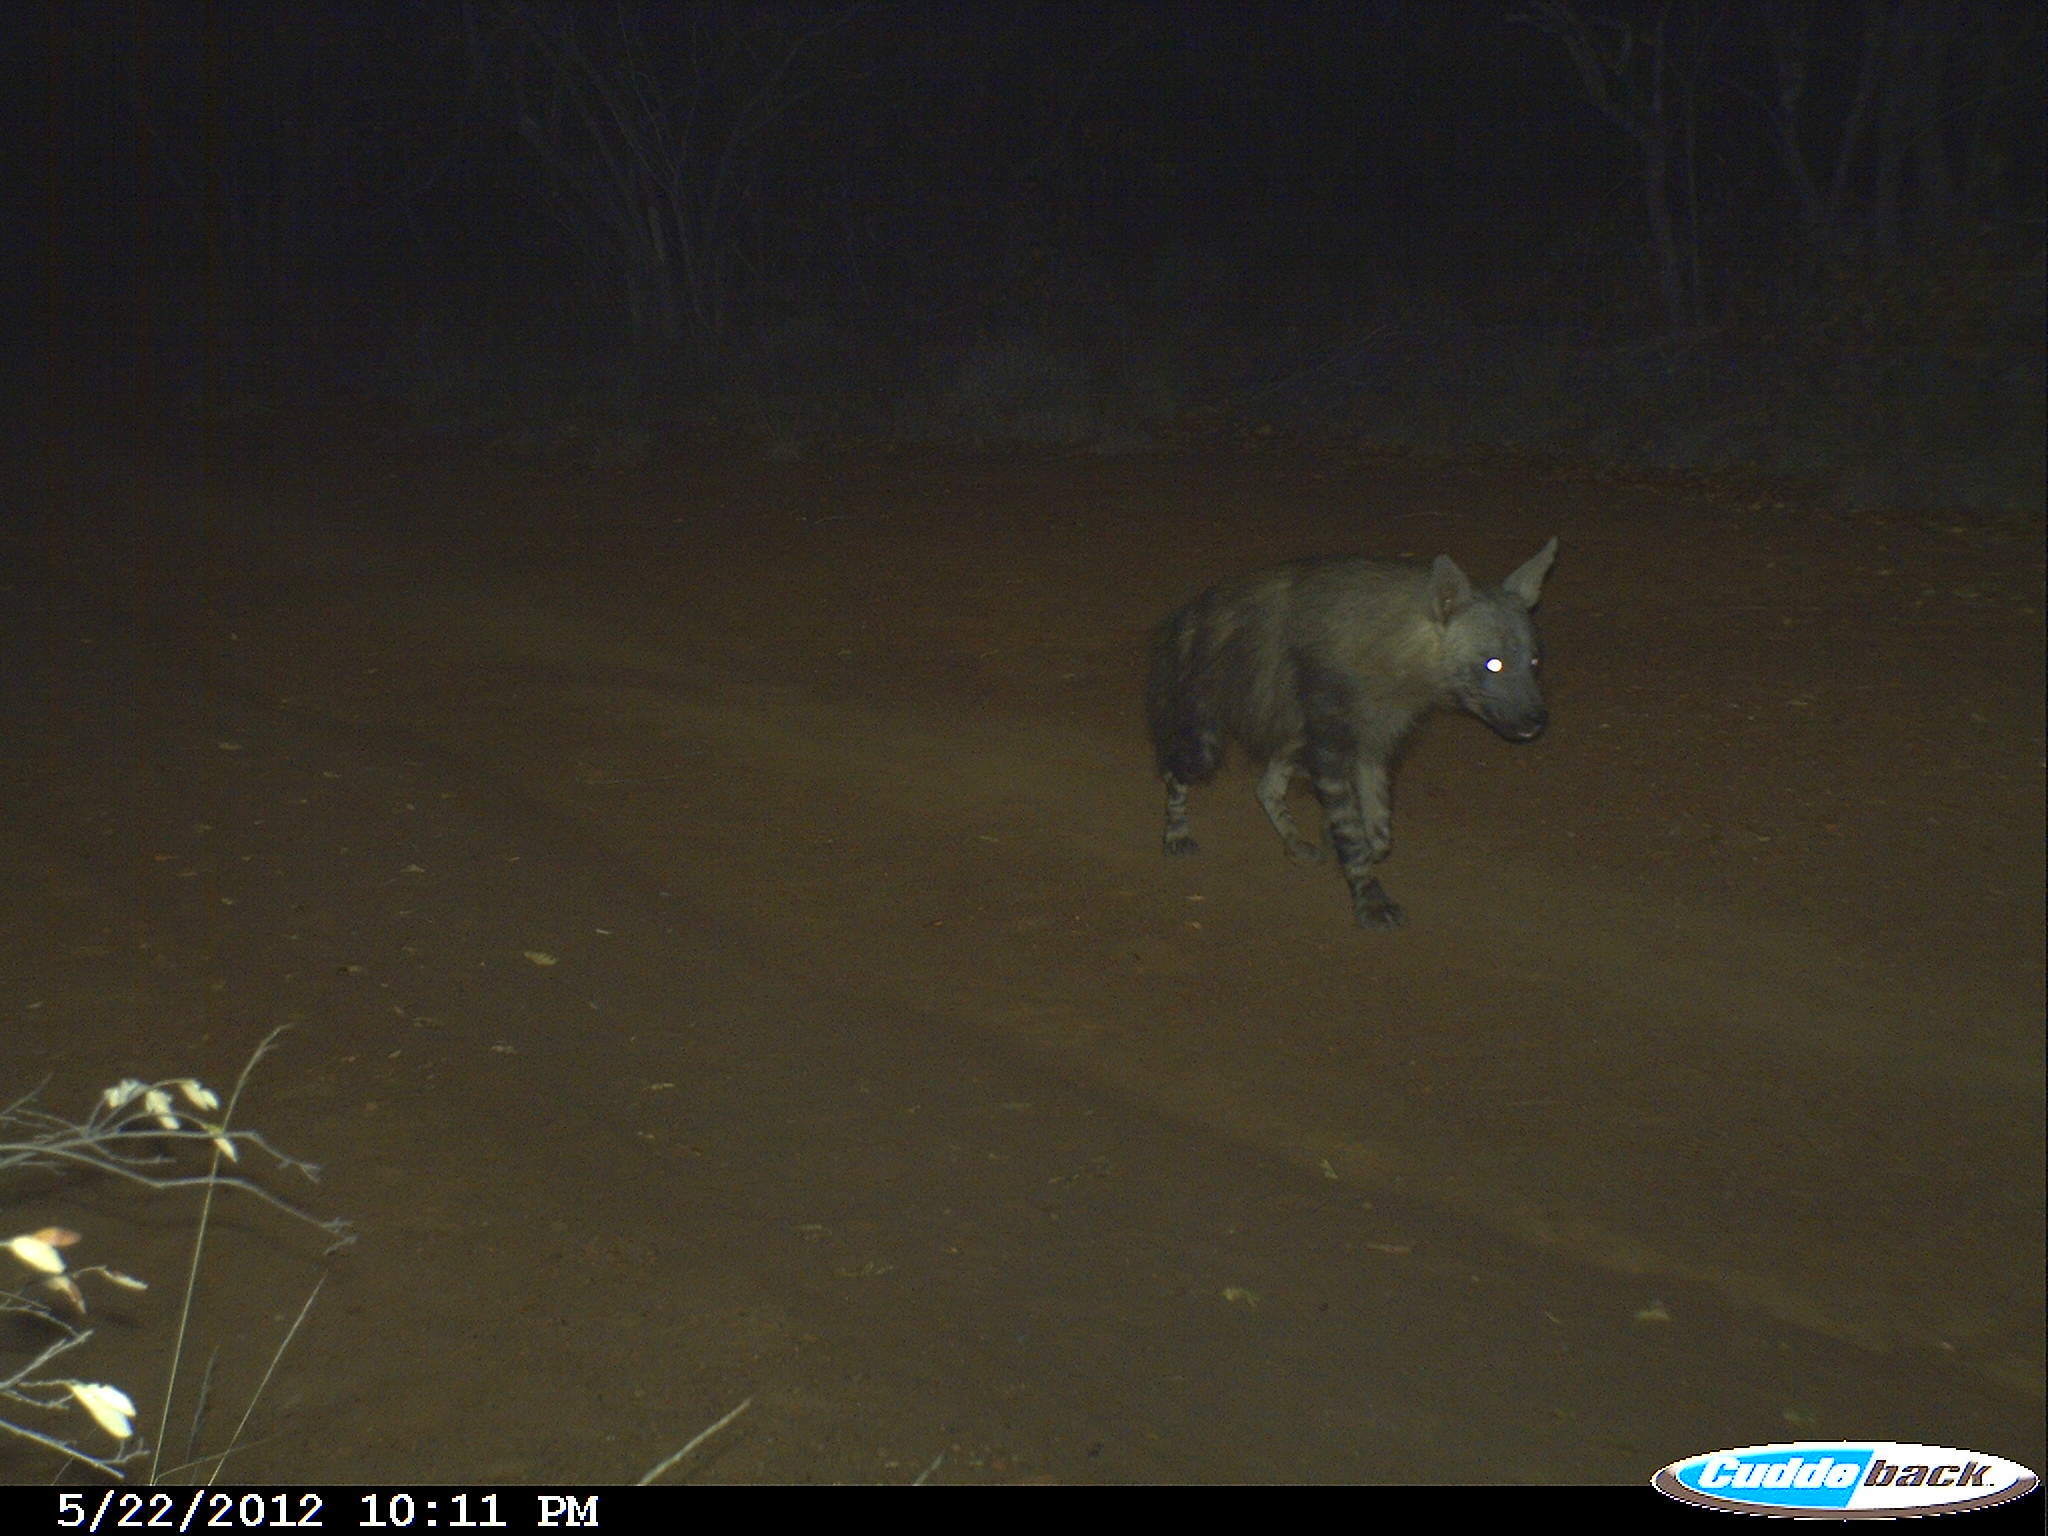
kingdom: Animalia
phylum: Chordata
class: Mammalia
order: Carnivora
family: Hyaenidae
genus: Hyaena
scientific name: Hyaena brunnea
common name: Brown hyena
